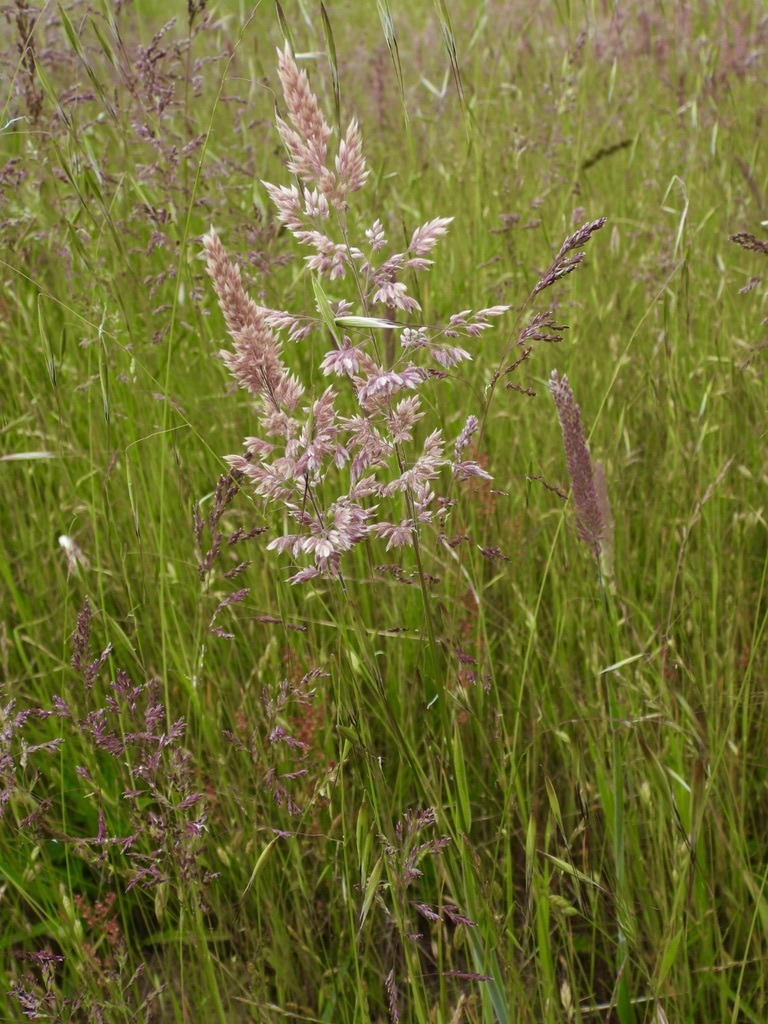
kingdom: Plantae
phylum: Tracheophyta
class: Liliopsida
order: Poales
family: Poaceae
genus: Holcus
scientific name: Holcus lanatus
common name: Yorkshire-fog
